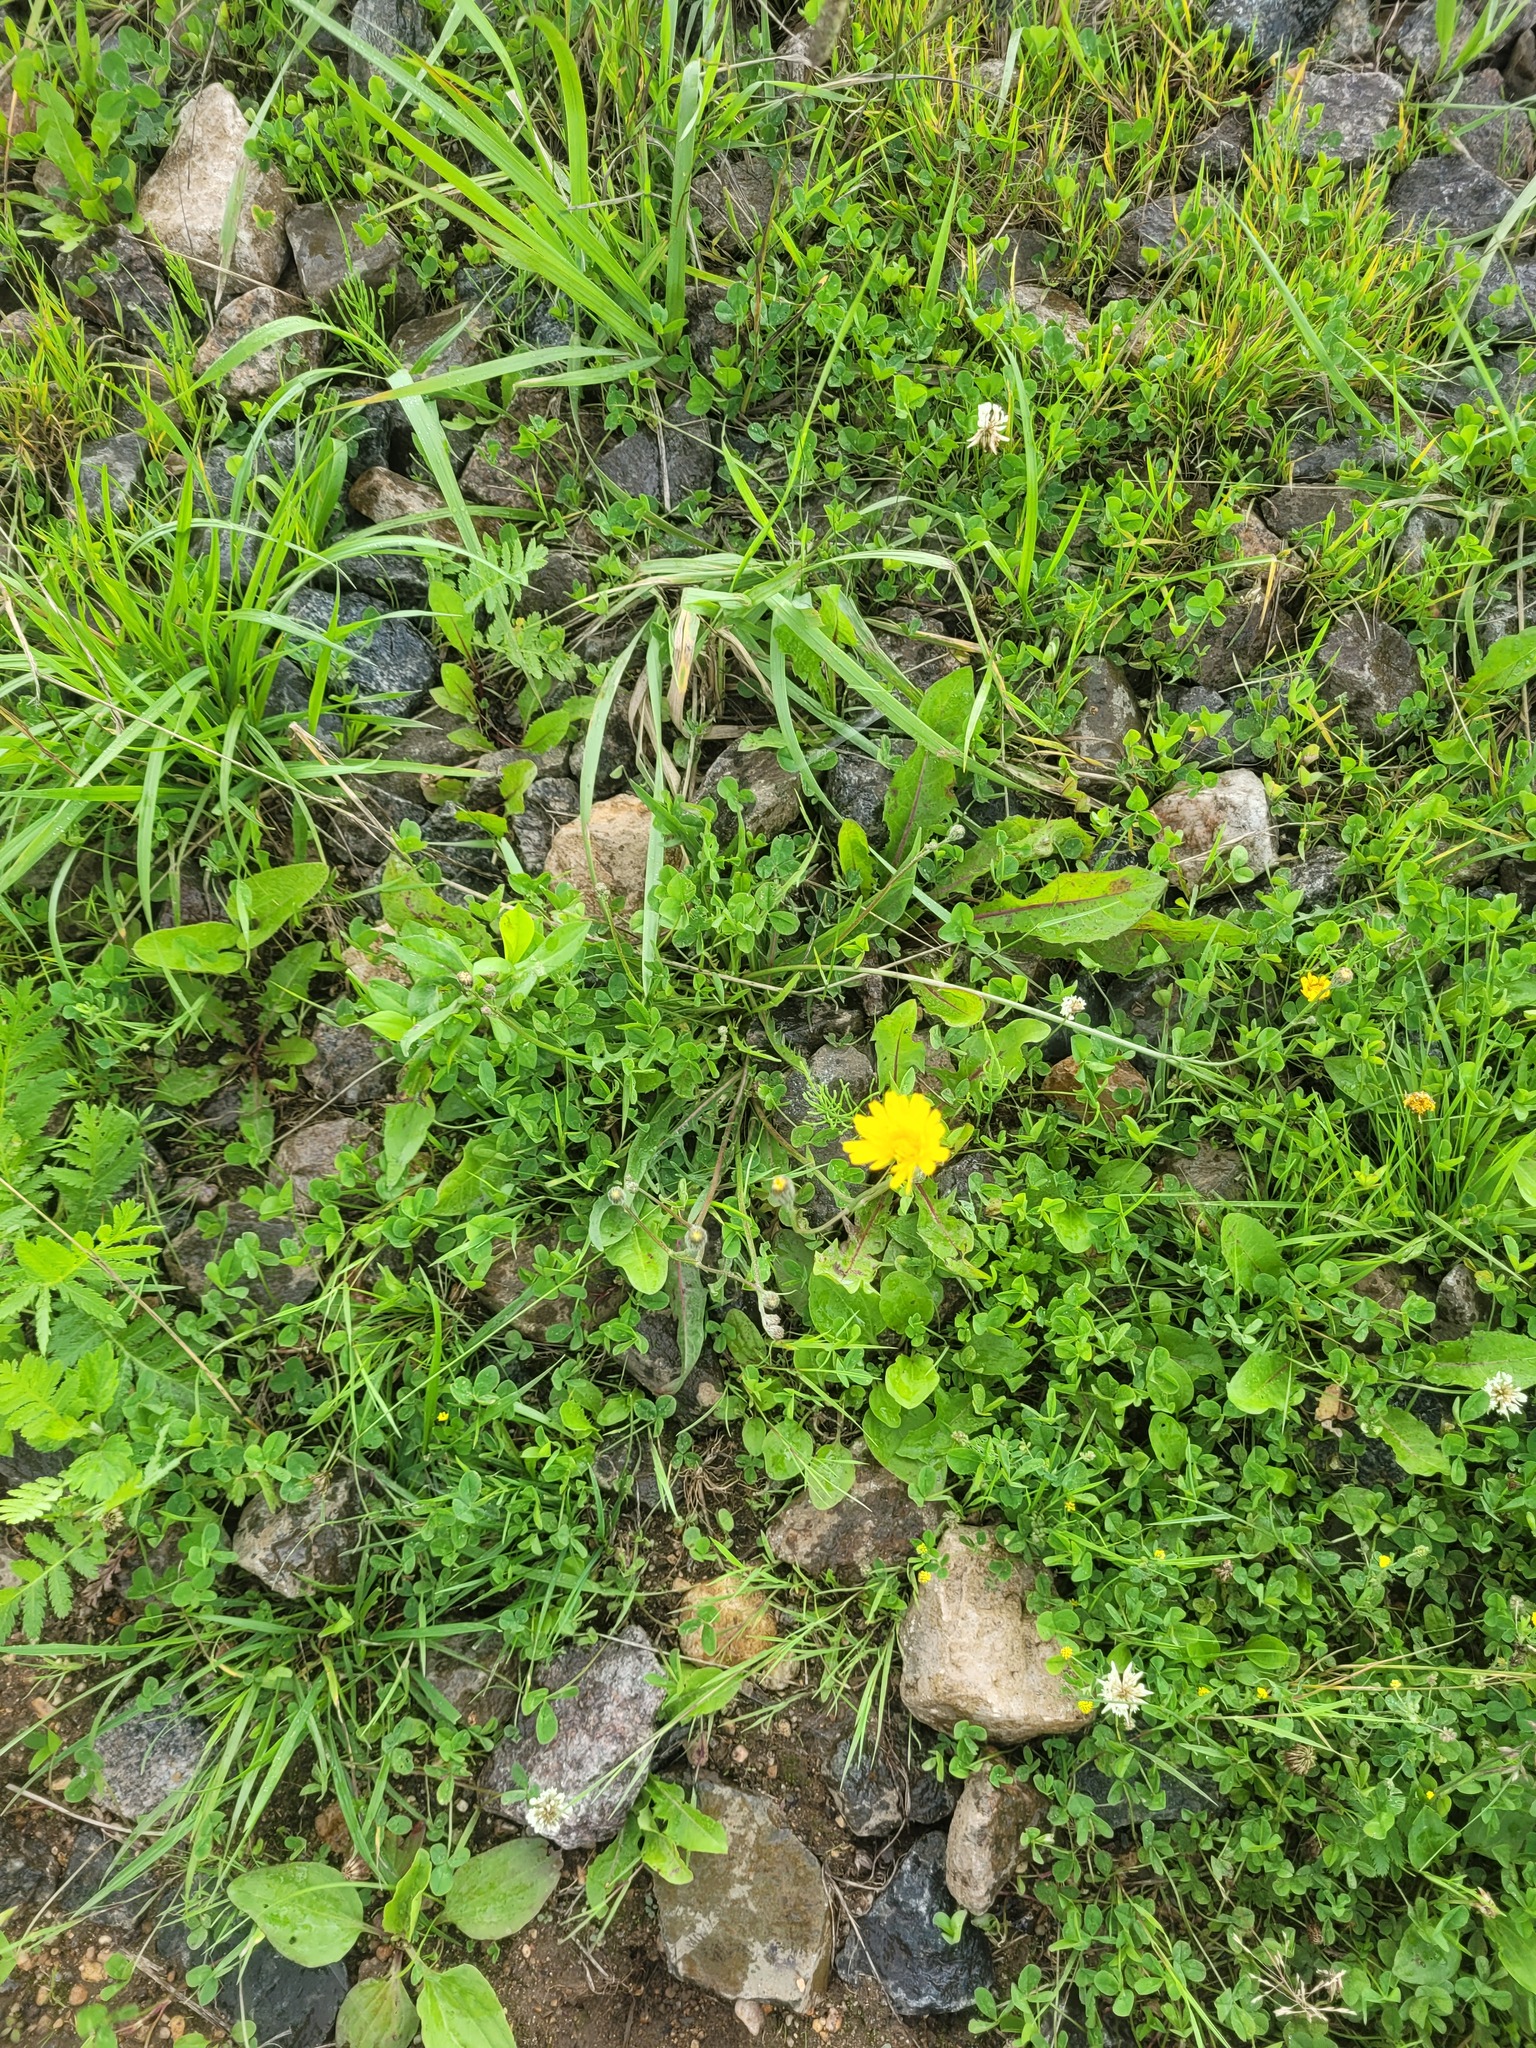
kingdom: Plantae
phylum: Tracheophyta
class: Magnoliopsida
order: Asterales
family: Asteraceae
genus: Scorzoneroides
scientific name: Scorzoneroides autumnalis
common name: Autumn hawkbit
